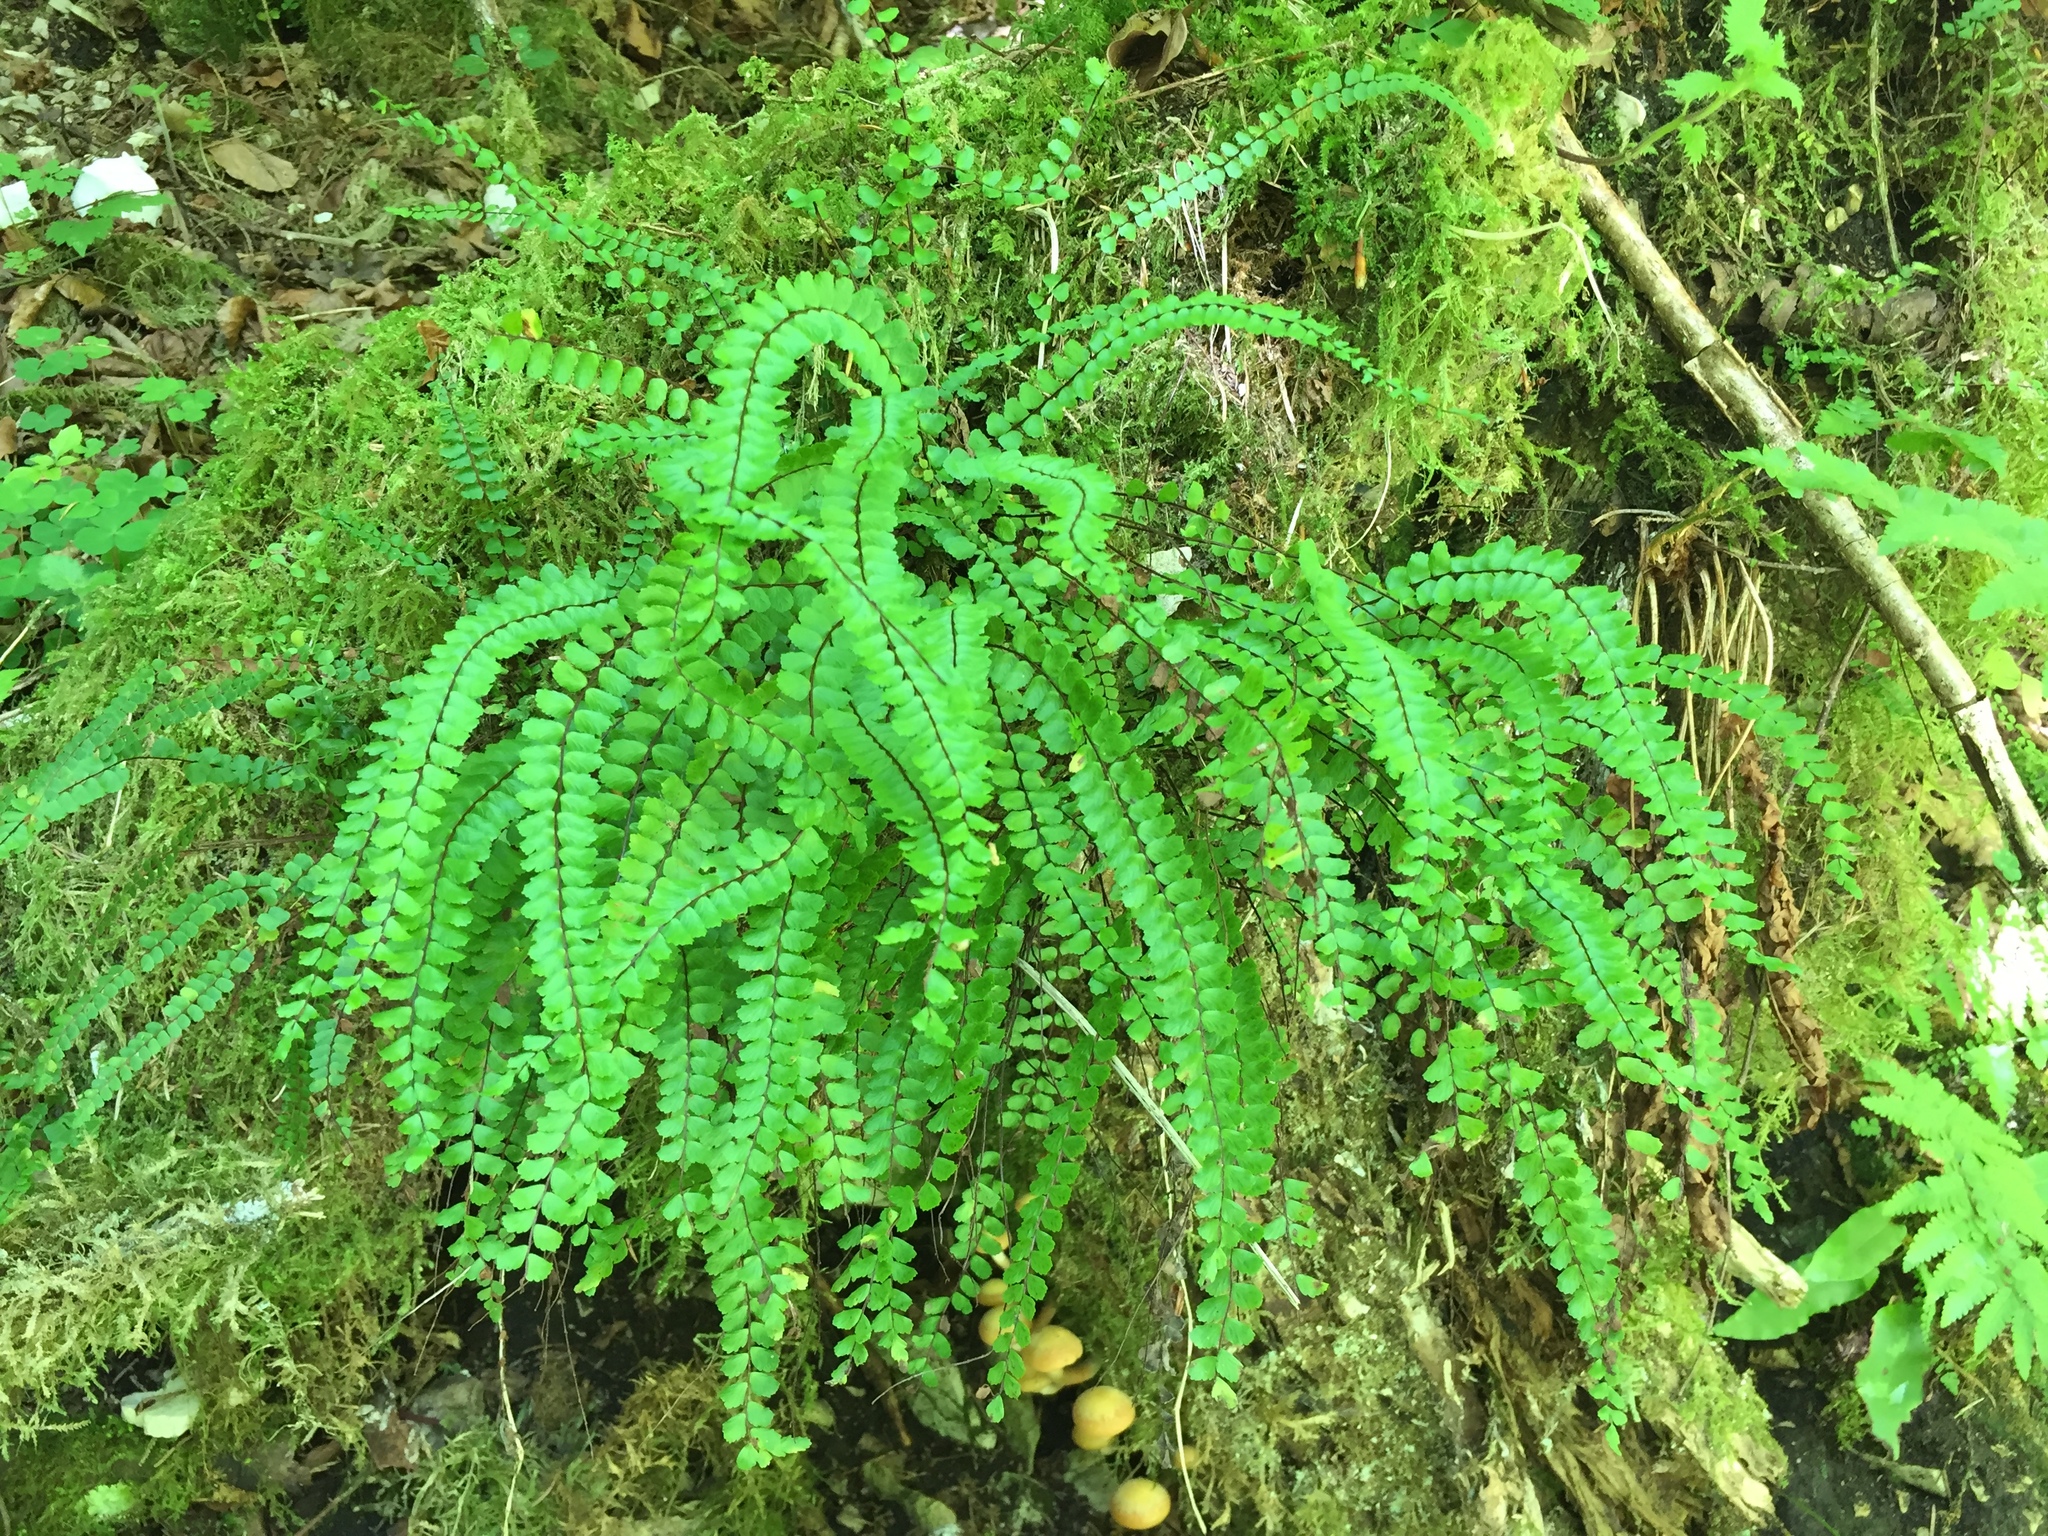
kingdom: Plantae
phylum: Tracheophyta
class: Polypodiopsida
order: Polypodiales
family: Aspleniaceae
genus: Asplenium
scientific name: Asplenium trichomanes
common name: Maidenhair spleenwort
